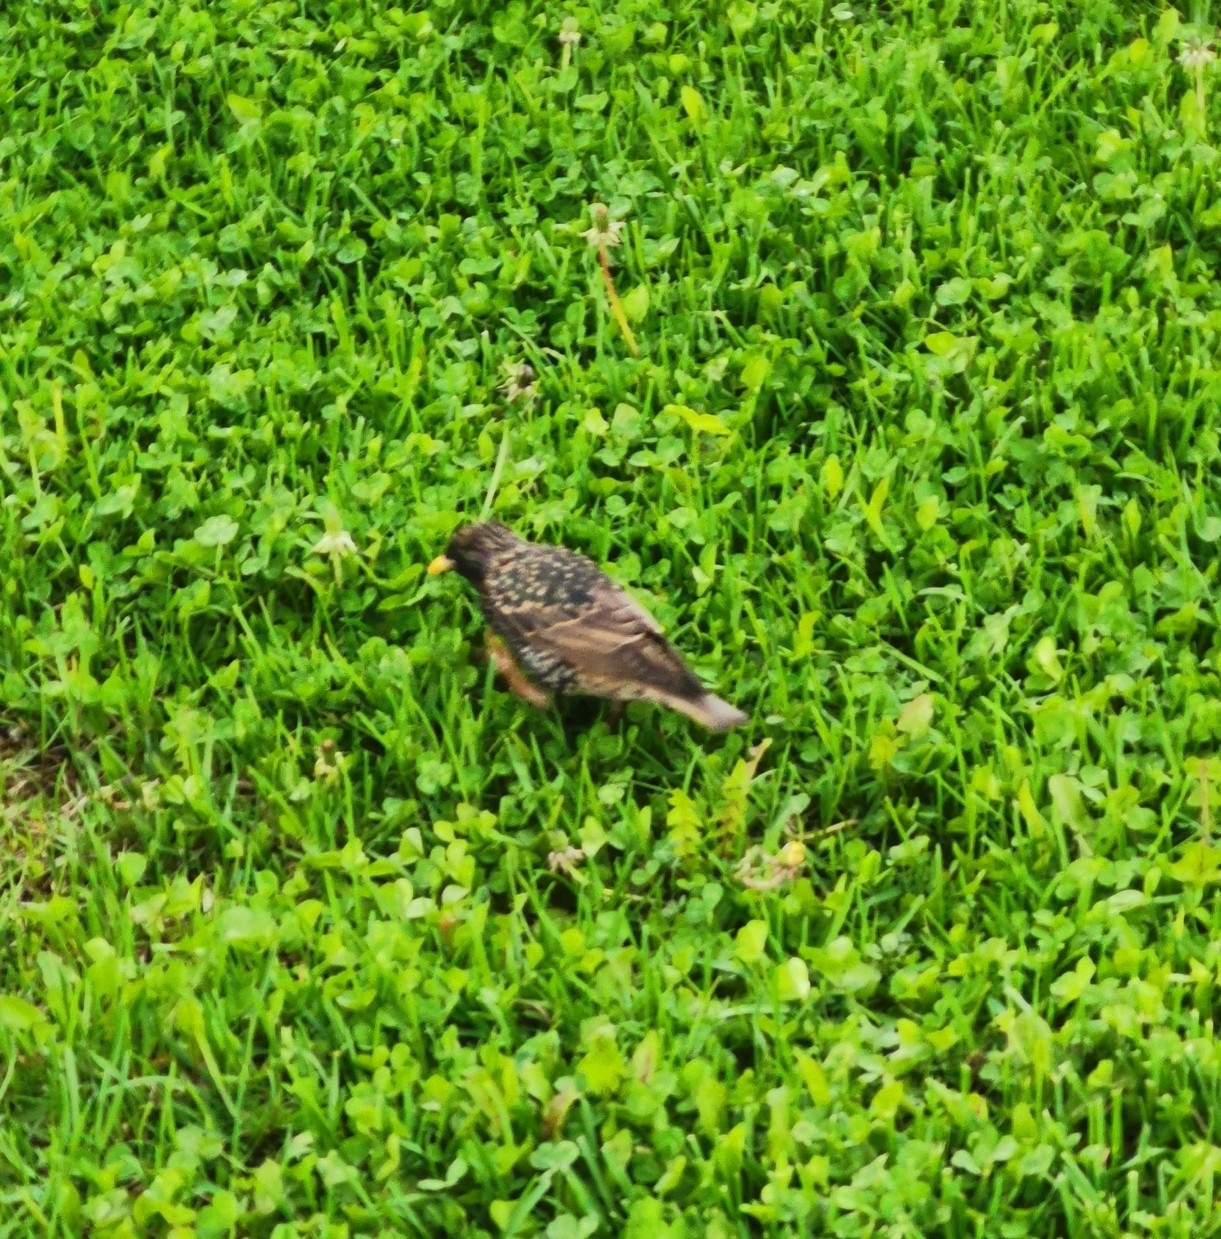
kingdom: Animalia
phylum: Chordata
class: Aves
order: Passeriformes
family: Sturnidae
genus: Sturnus
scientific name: Sturnus vulgaris
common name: Common starling
